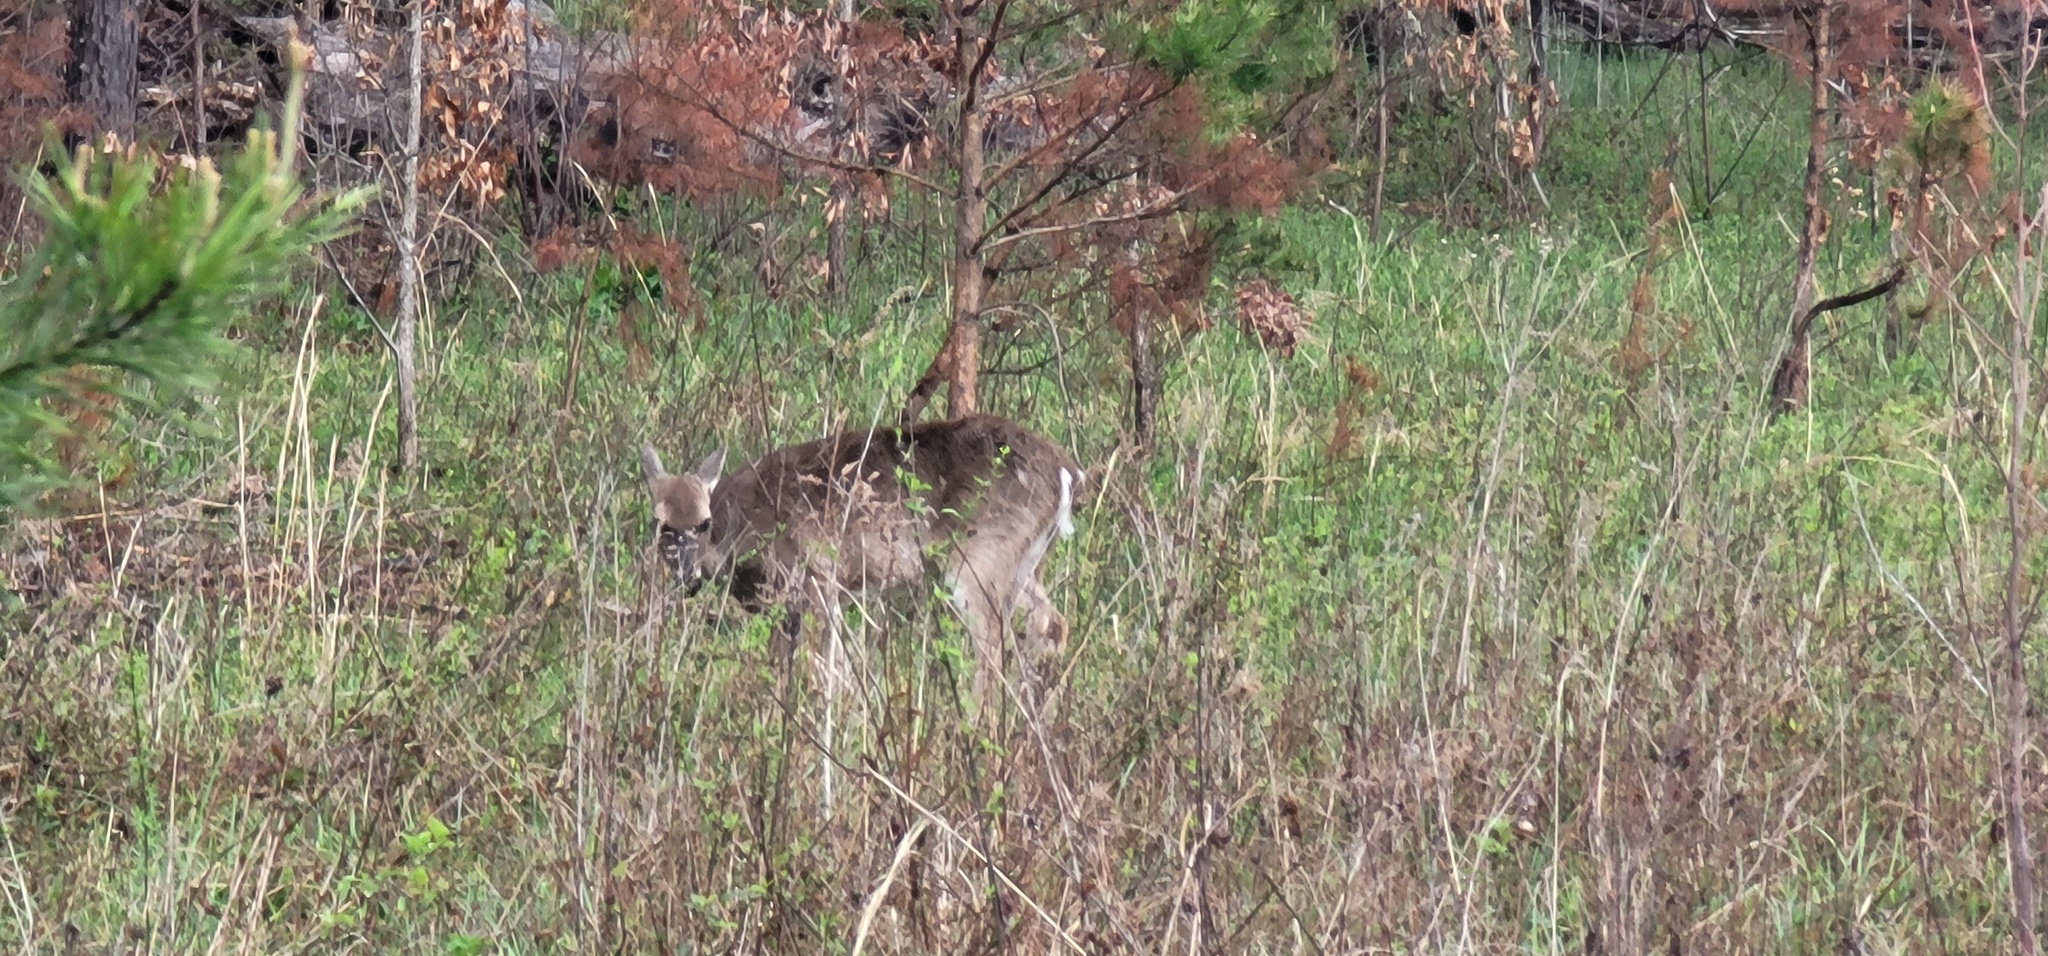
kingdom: Animalia
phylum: Chordata
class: Mammalia
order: Artiodactyla
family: Cervidae
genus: Odocoileus
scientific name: Odocoileus virginianus
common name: White-tailed deer
